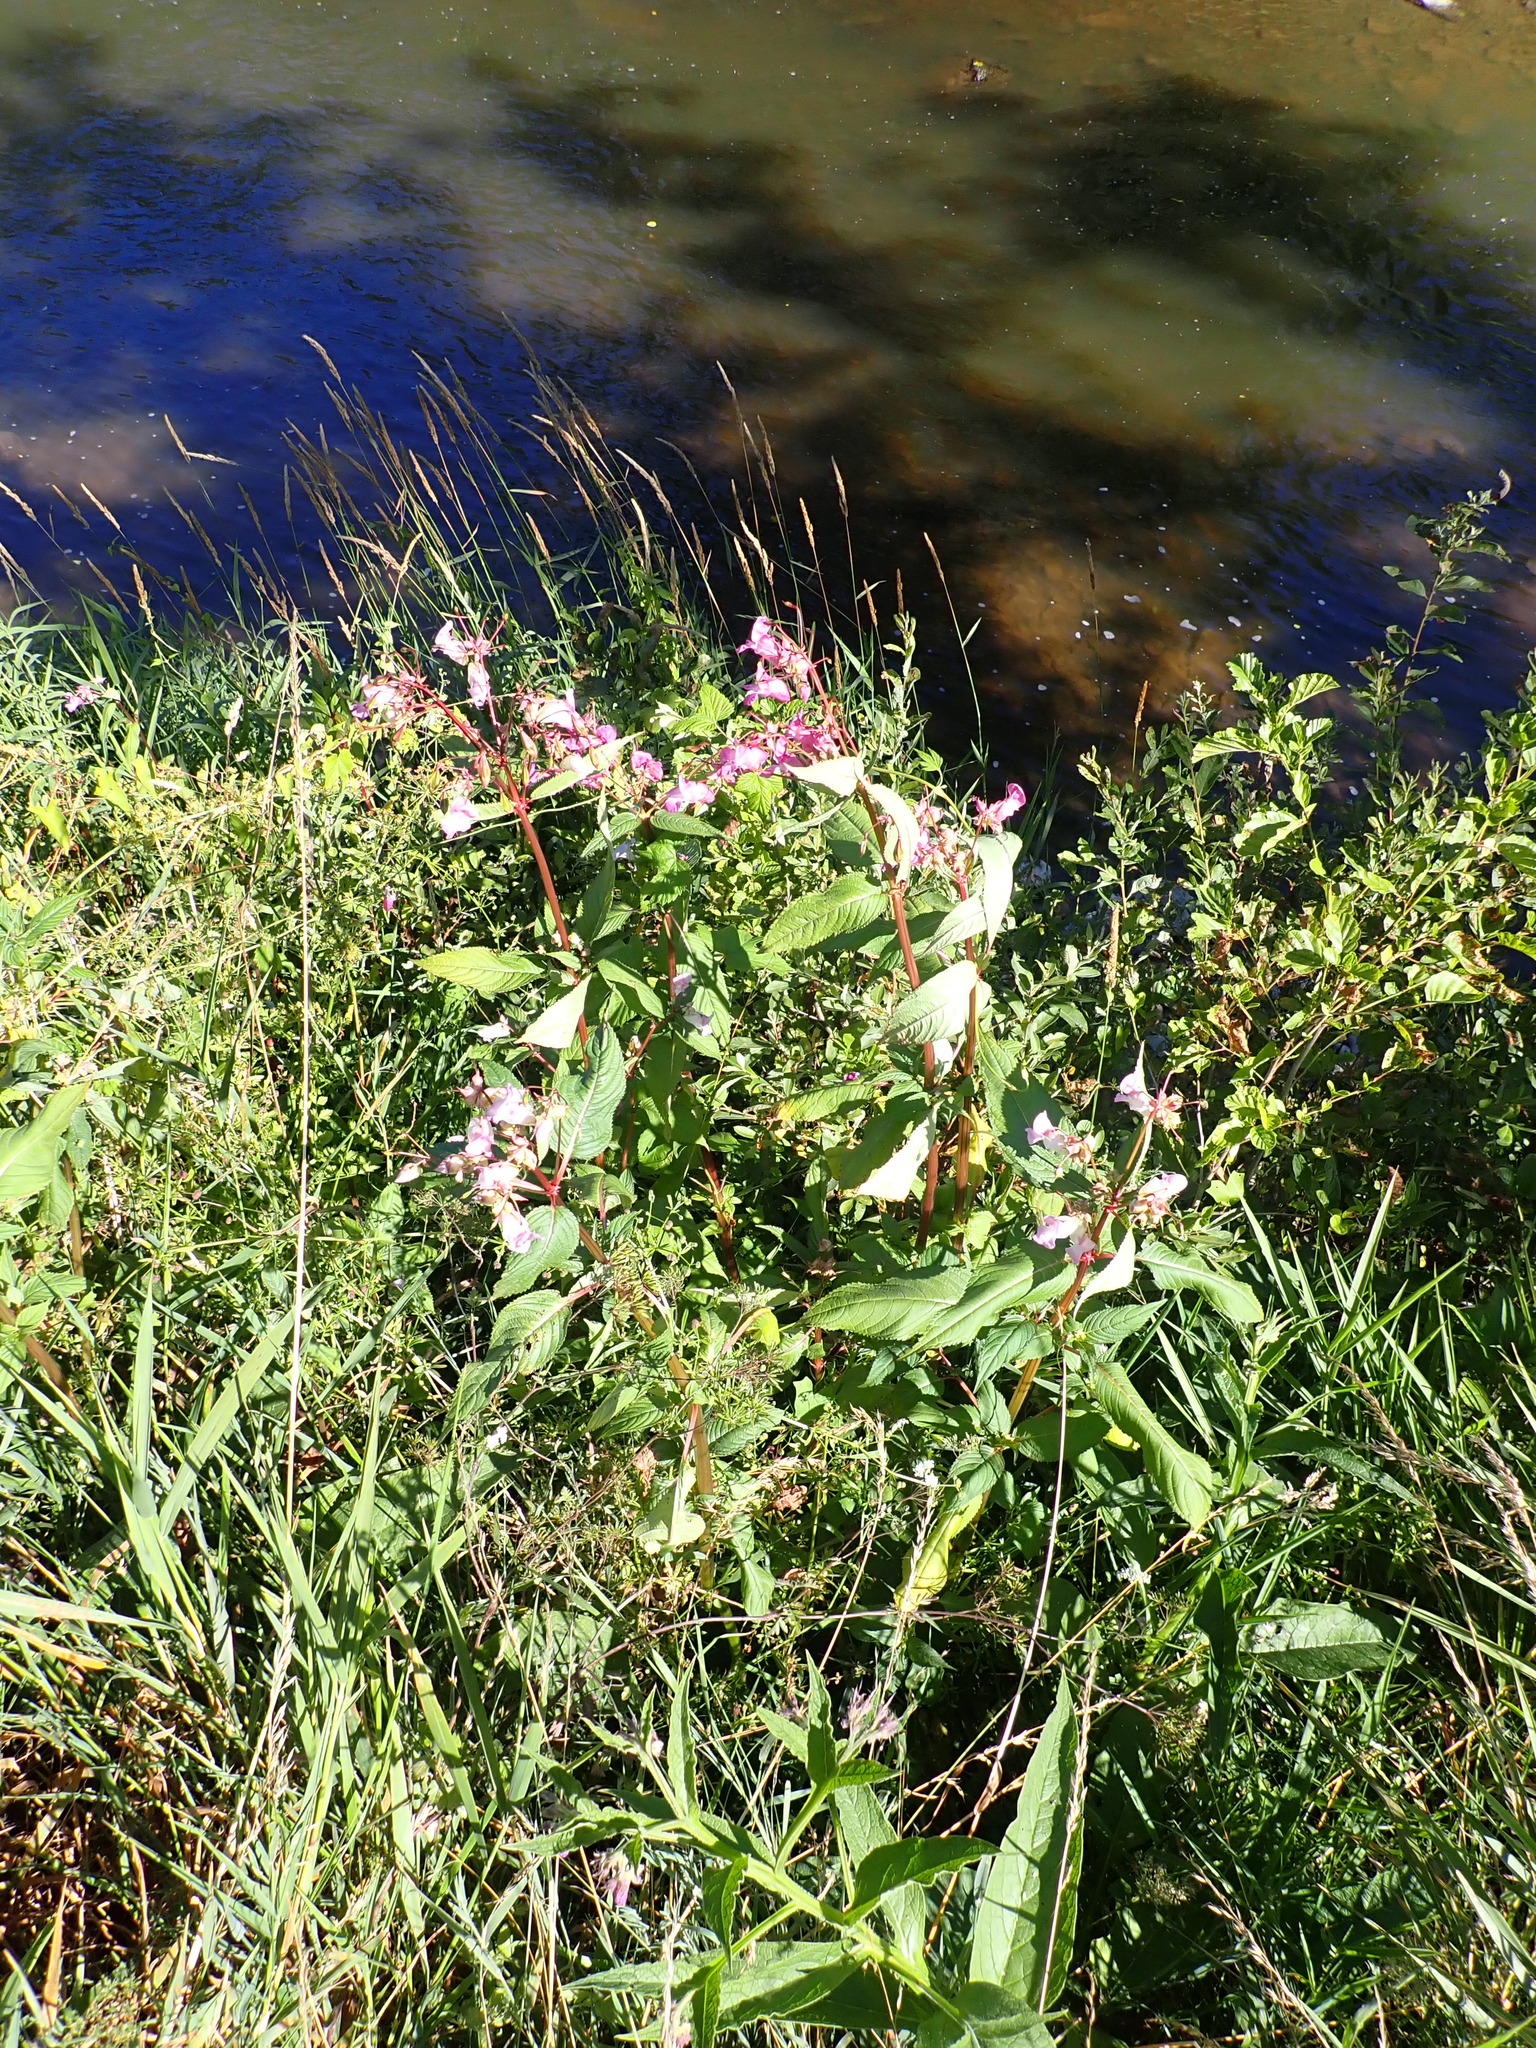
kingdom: Plantae
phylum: Tracheophyta
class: Magnoliopsida
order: Ericales
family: Balsaminaceae
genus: Impatiens
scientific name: Impatiens glandulifera
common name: Himalayan balsam
